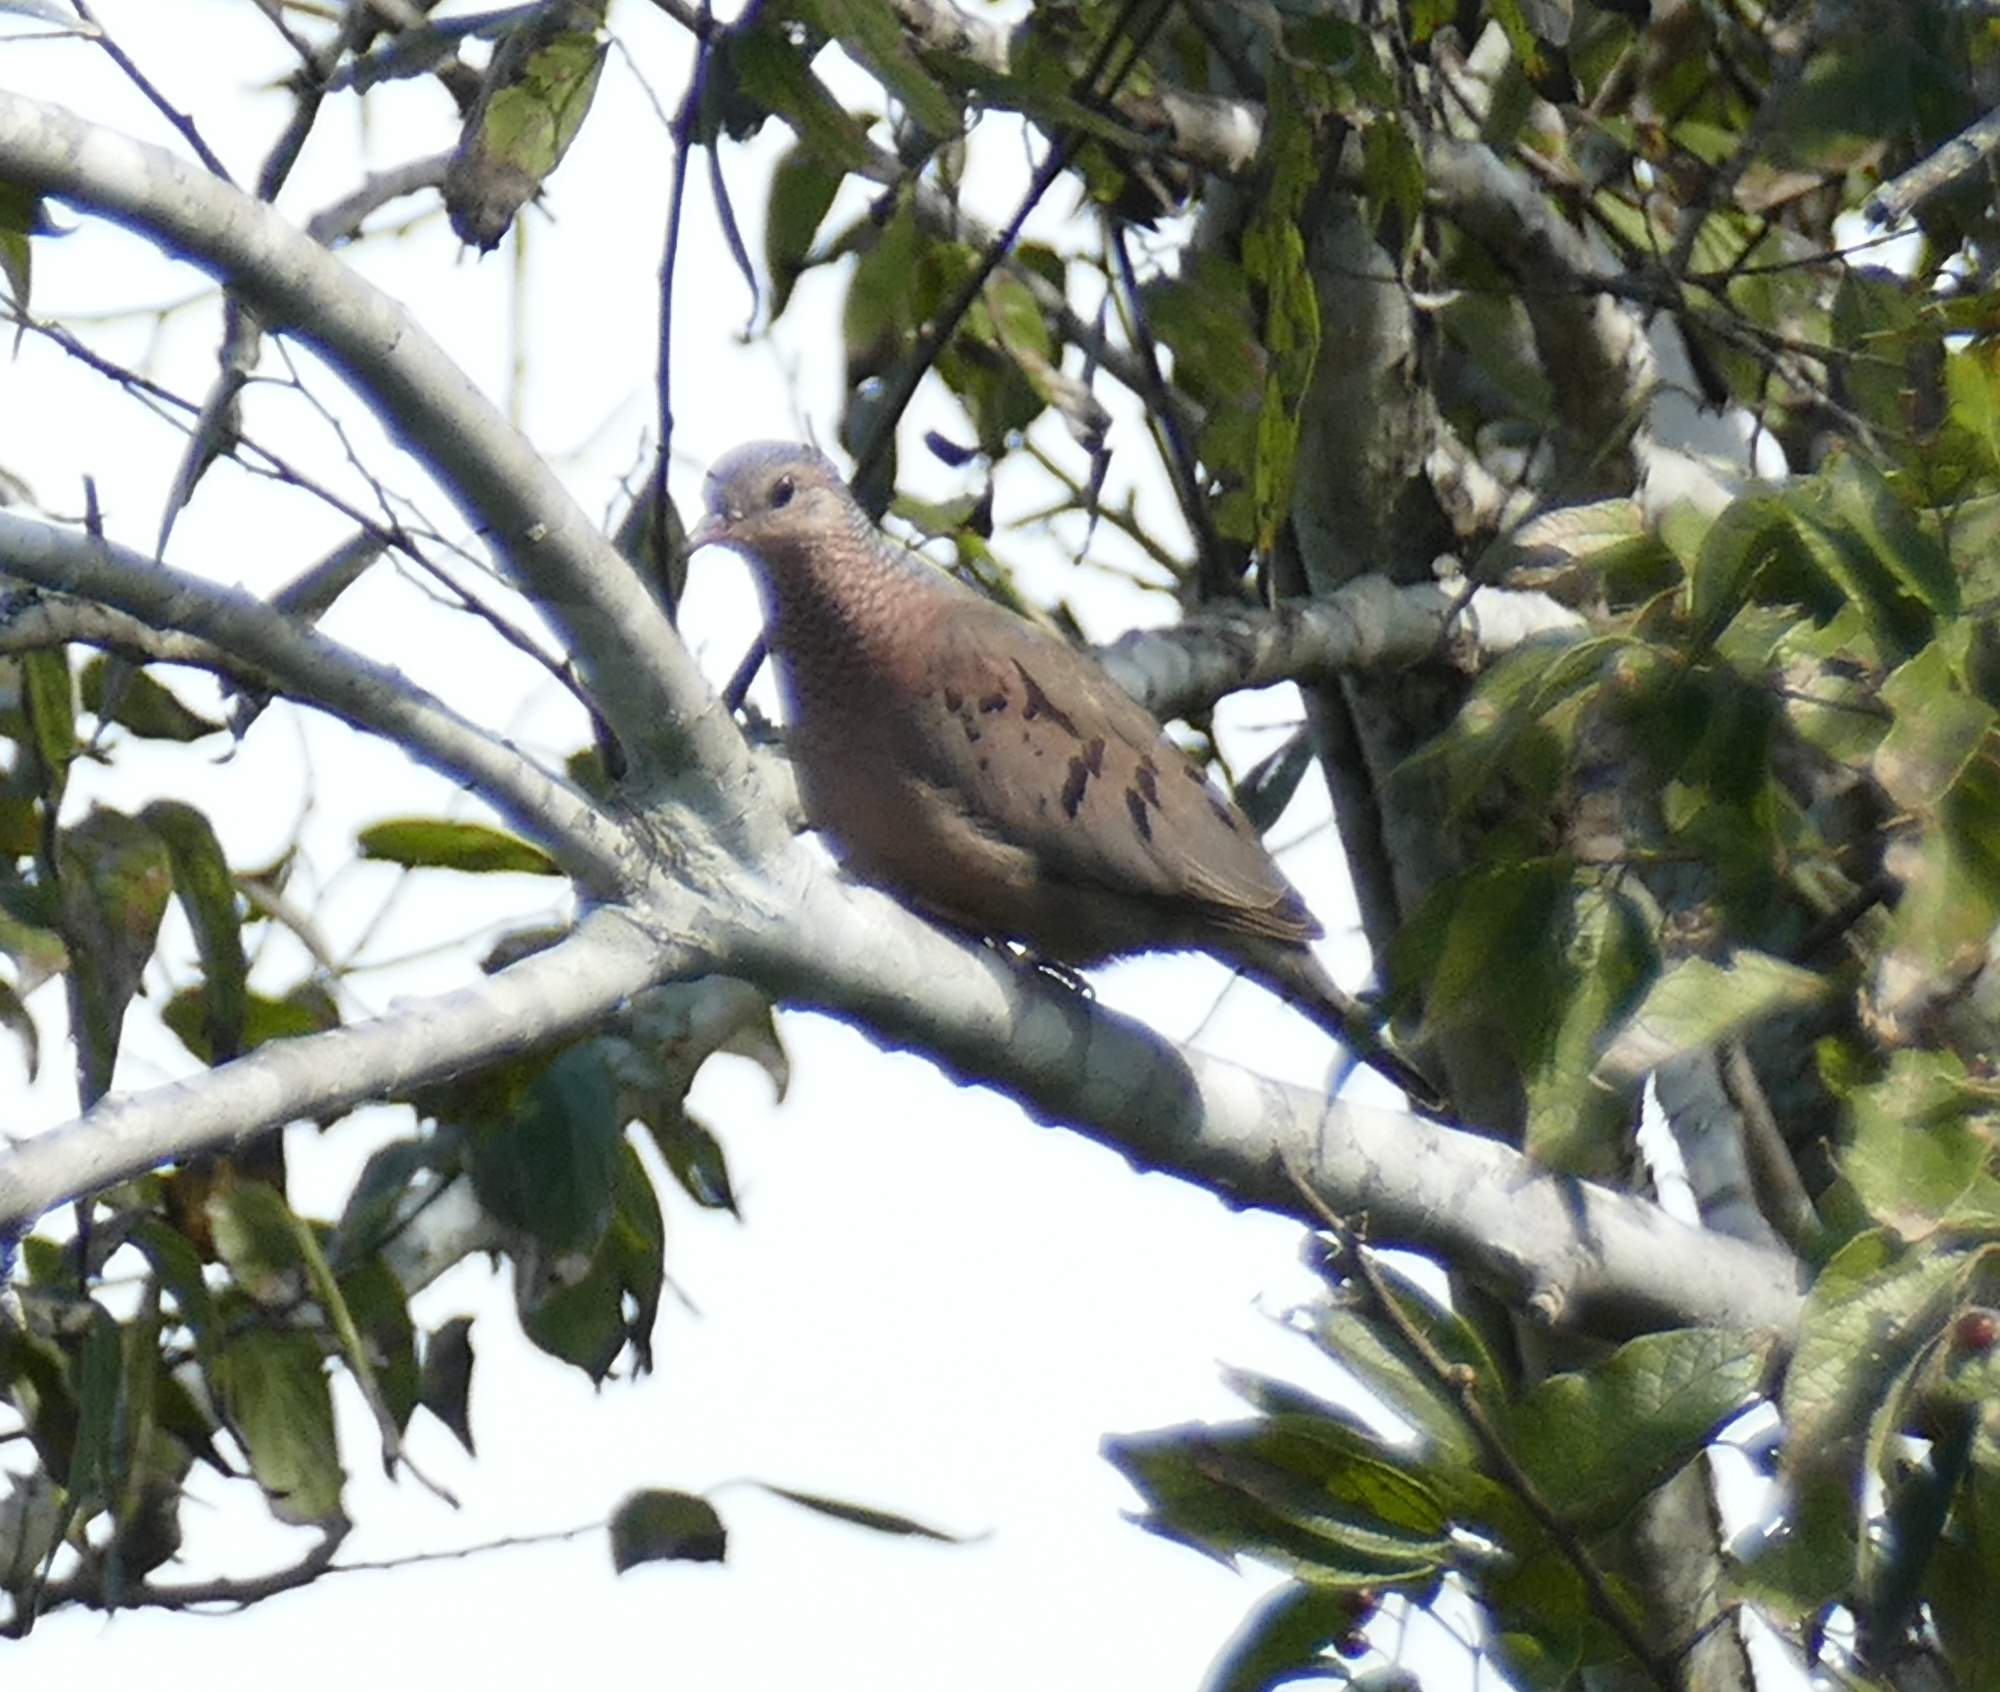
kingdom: Animalia
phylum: Chordata
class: Aves
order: Columbiformes
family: Columbidae
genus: Columbina
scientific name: Columbina passerina
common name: Common ground-dove
